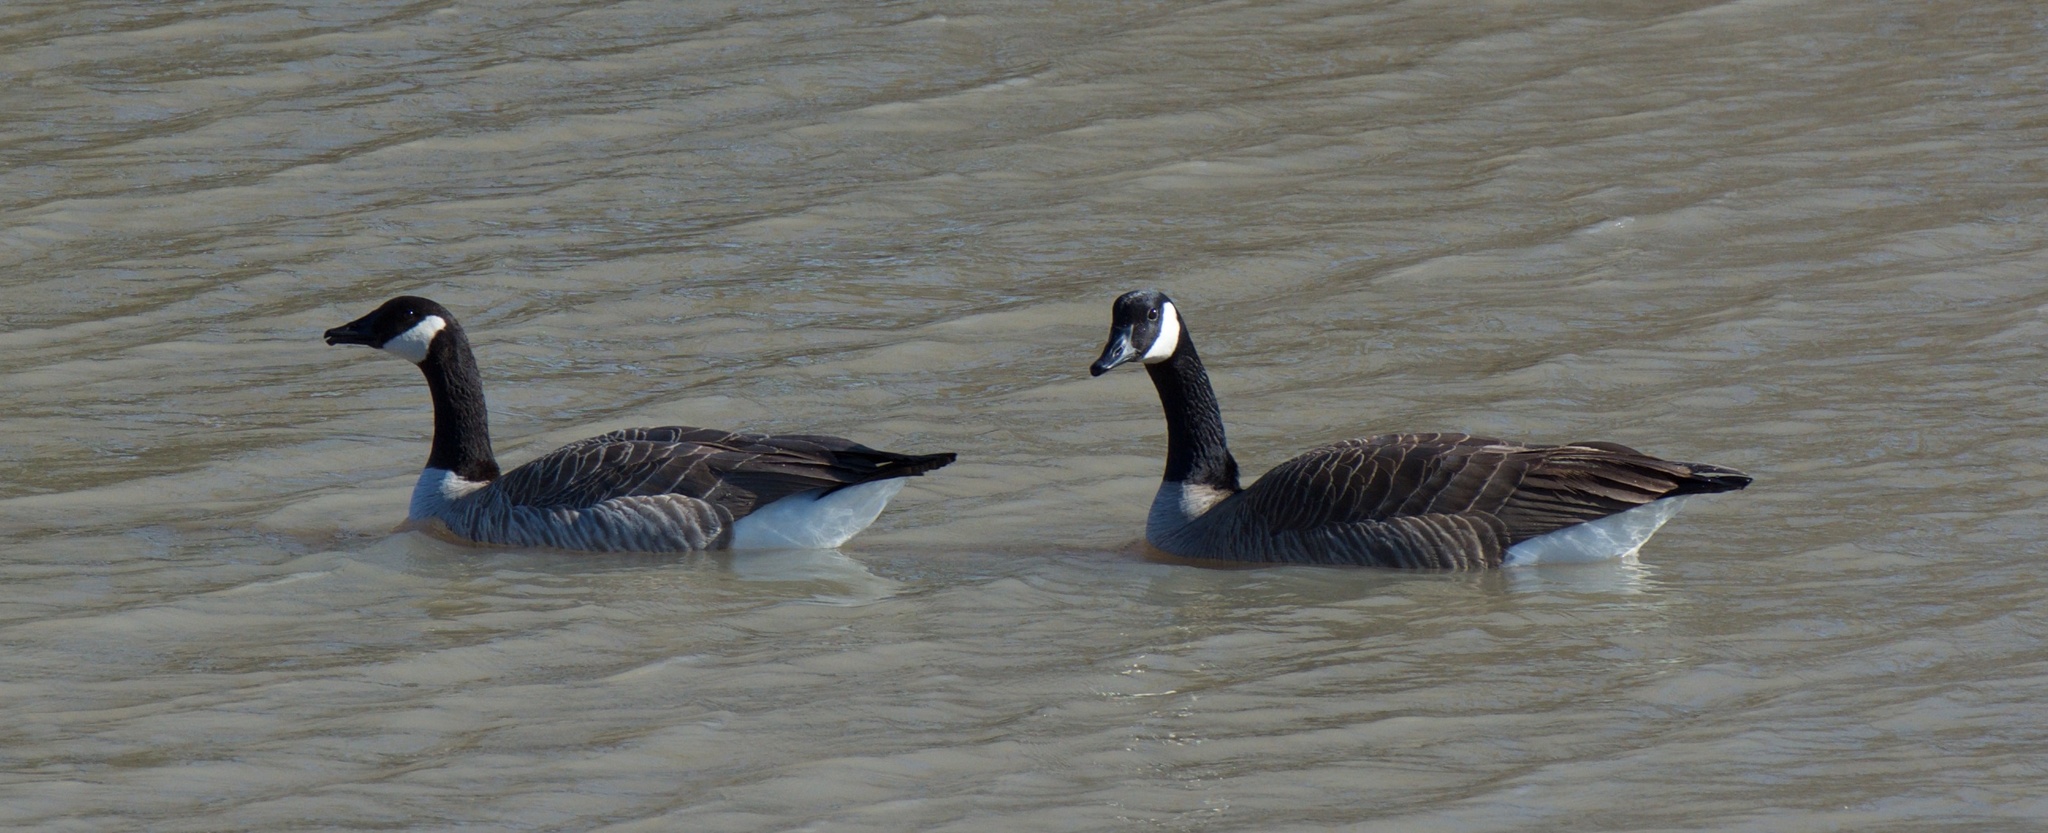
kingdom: Animalia
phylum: Chordata
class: Aves
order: Anseriformes
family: Anatidae
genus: Branta
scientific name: Branta canadensis
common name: Canada goose
